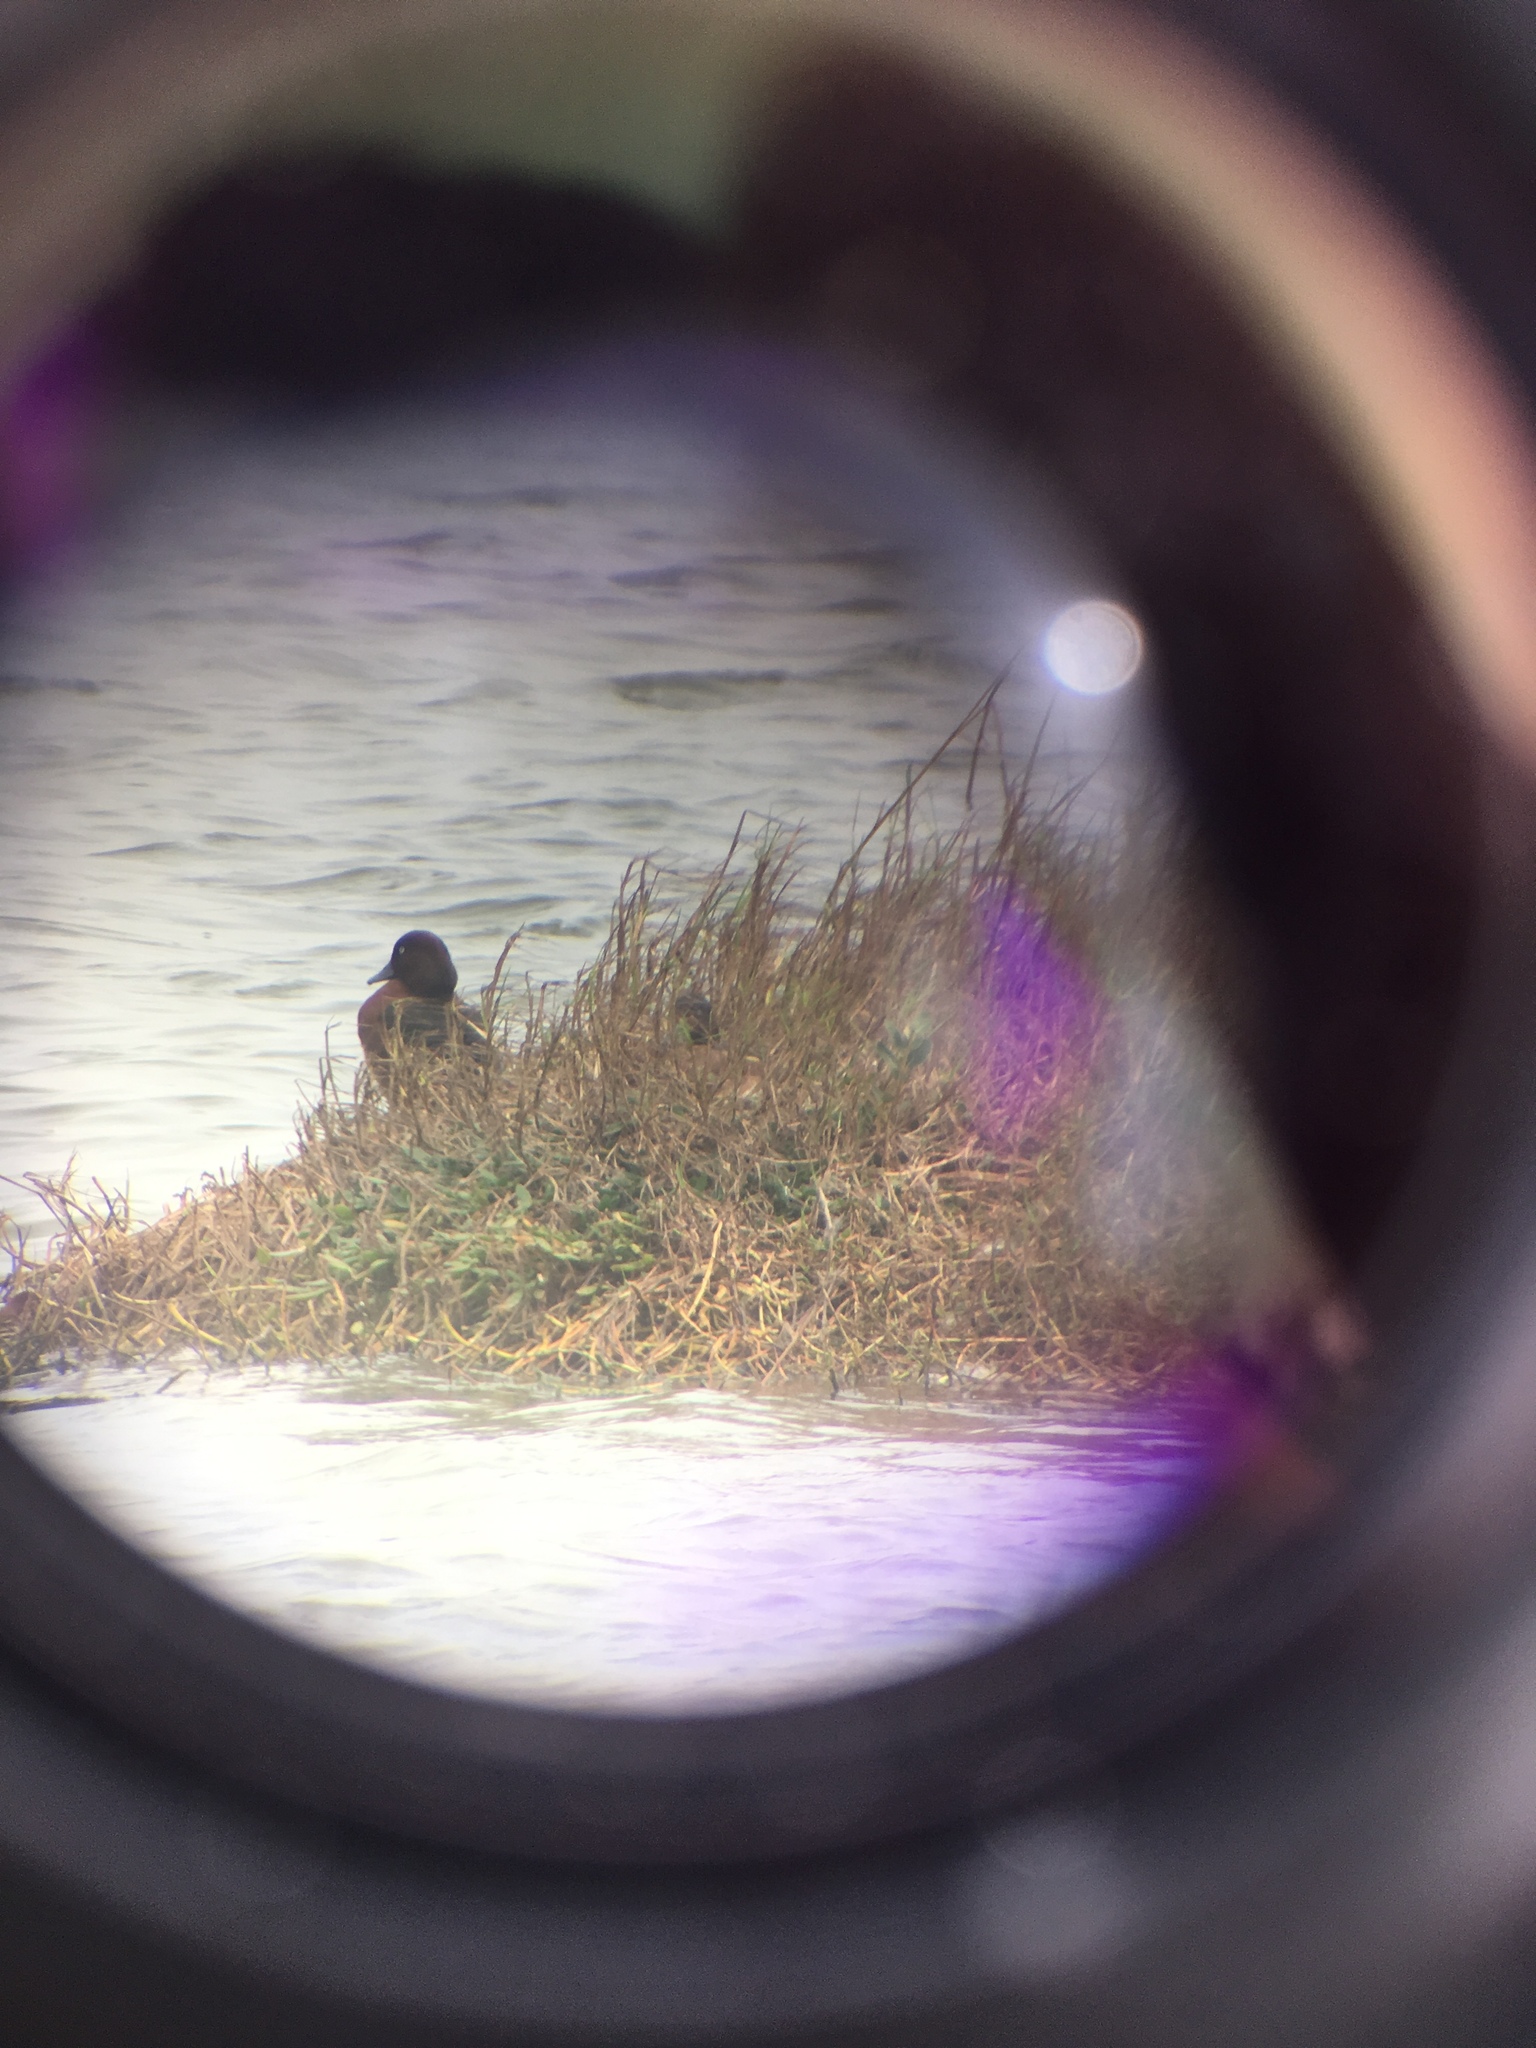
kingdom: Animalia
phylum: Chordata
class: Aves
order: Anseriformes
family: Anatidae
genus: Aythya
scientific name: Aythya nyroca
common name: Ferruginous duck
